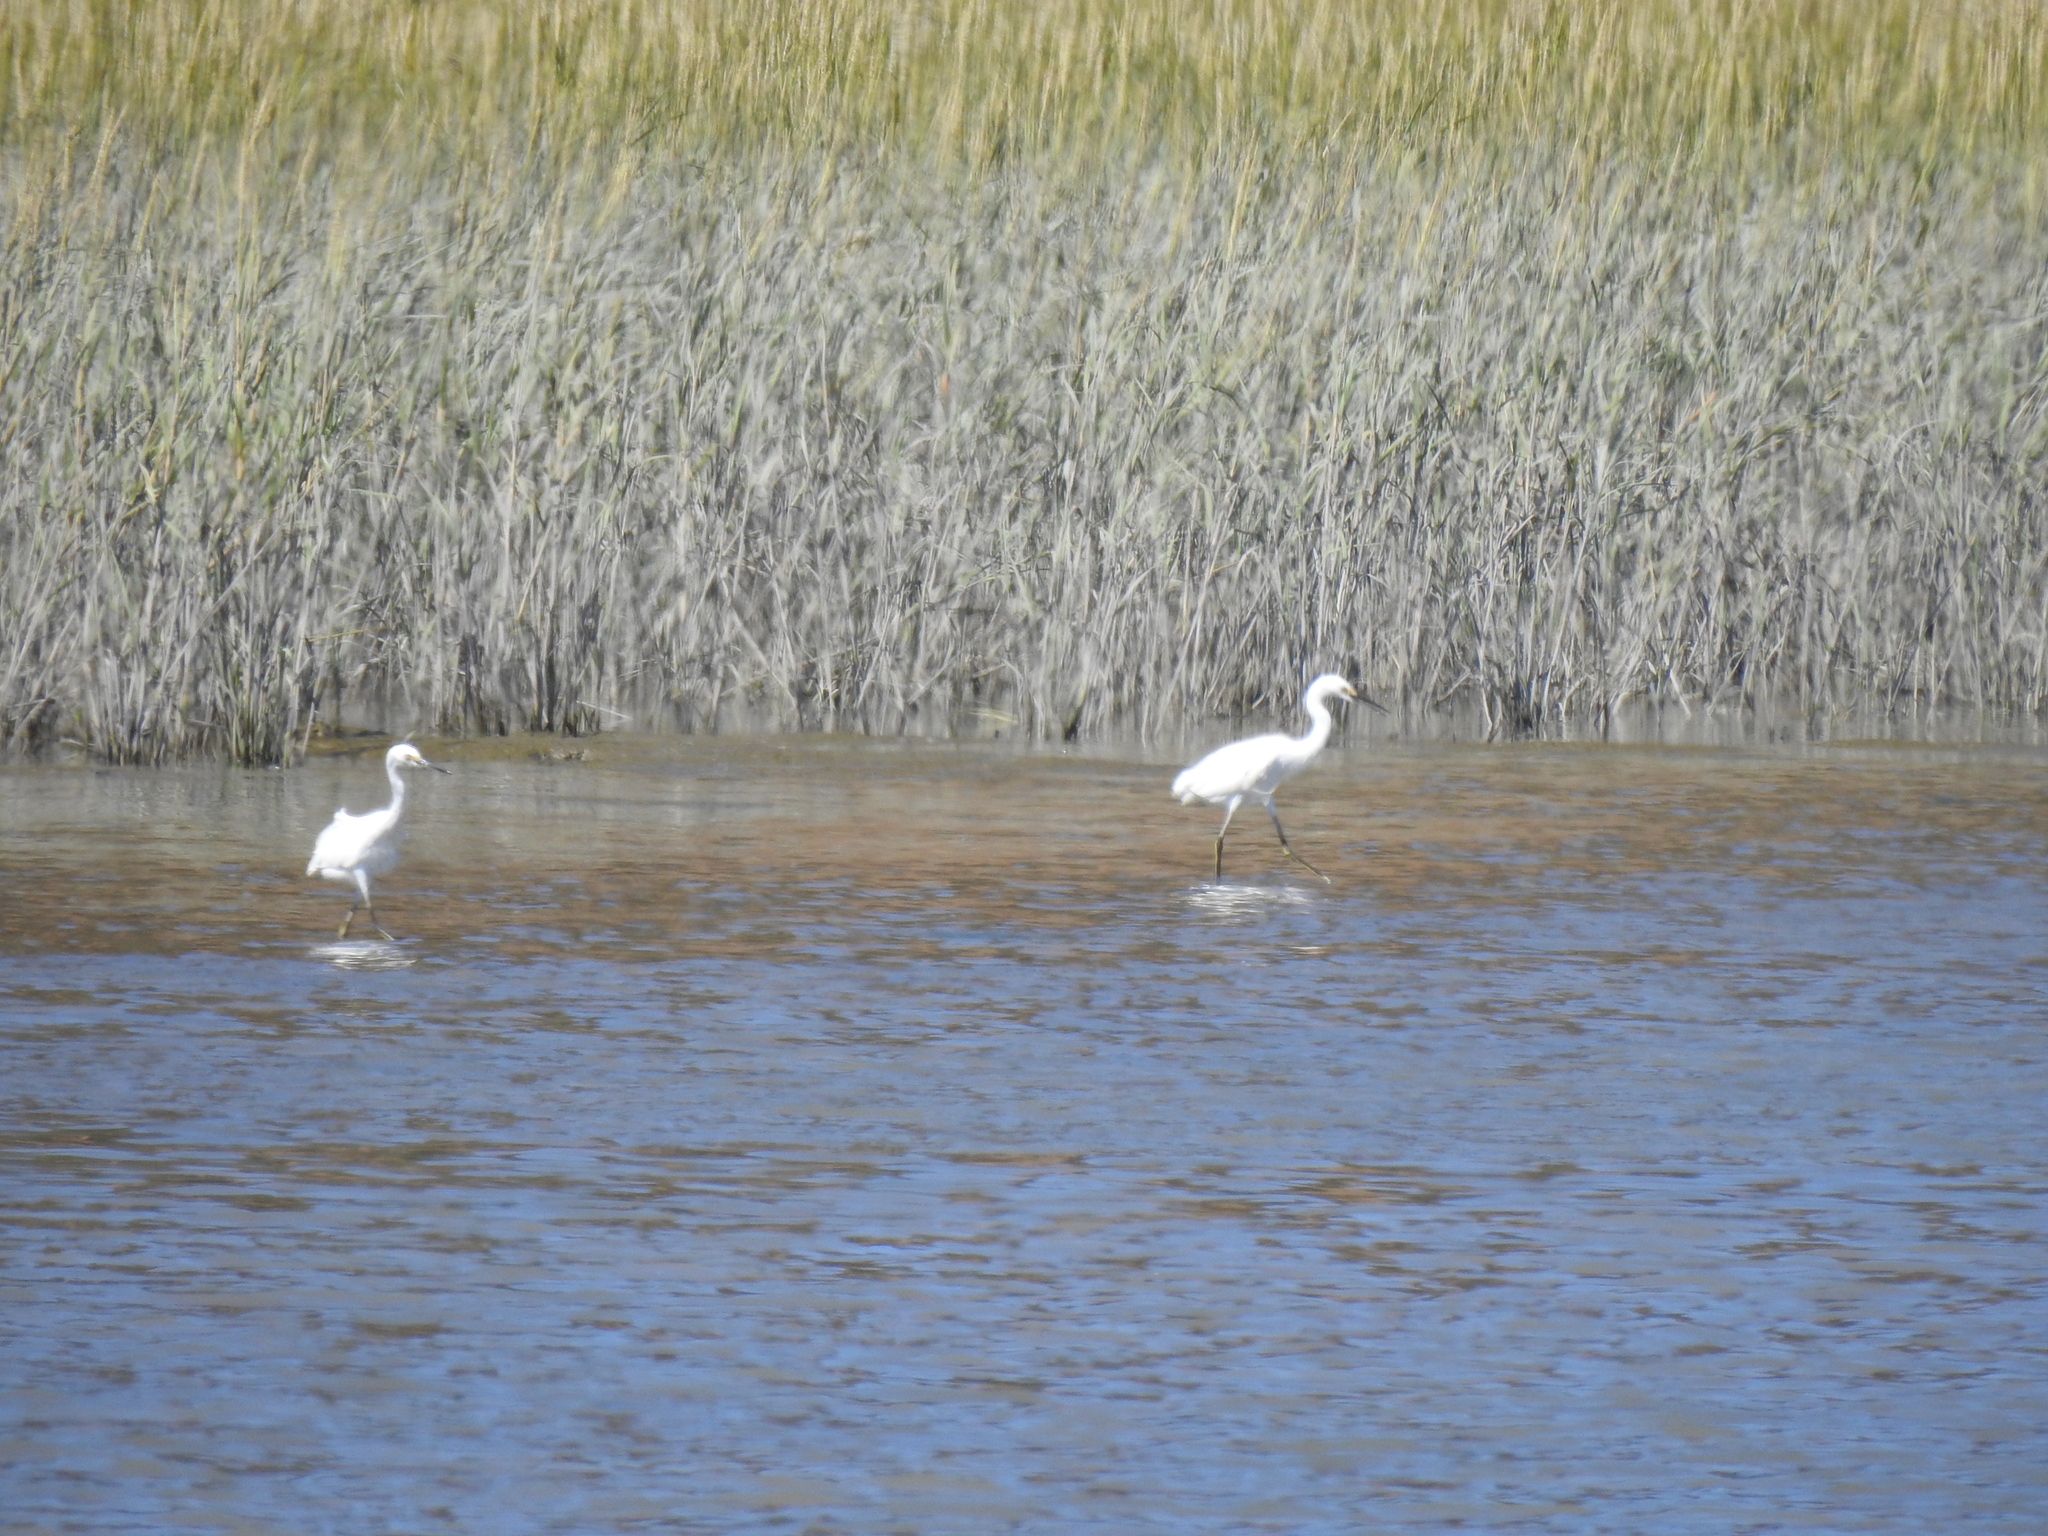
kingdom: Animalia
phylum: Chordata
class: Aves
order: Pelecaniformes
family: Ardeidae
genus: Egretta
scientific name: Egretta thula
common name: Snowy egret
